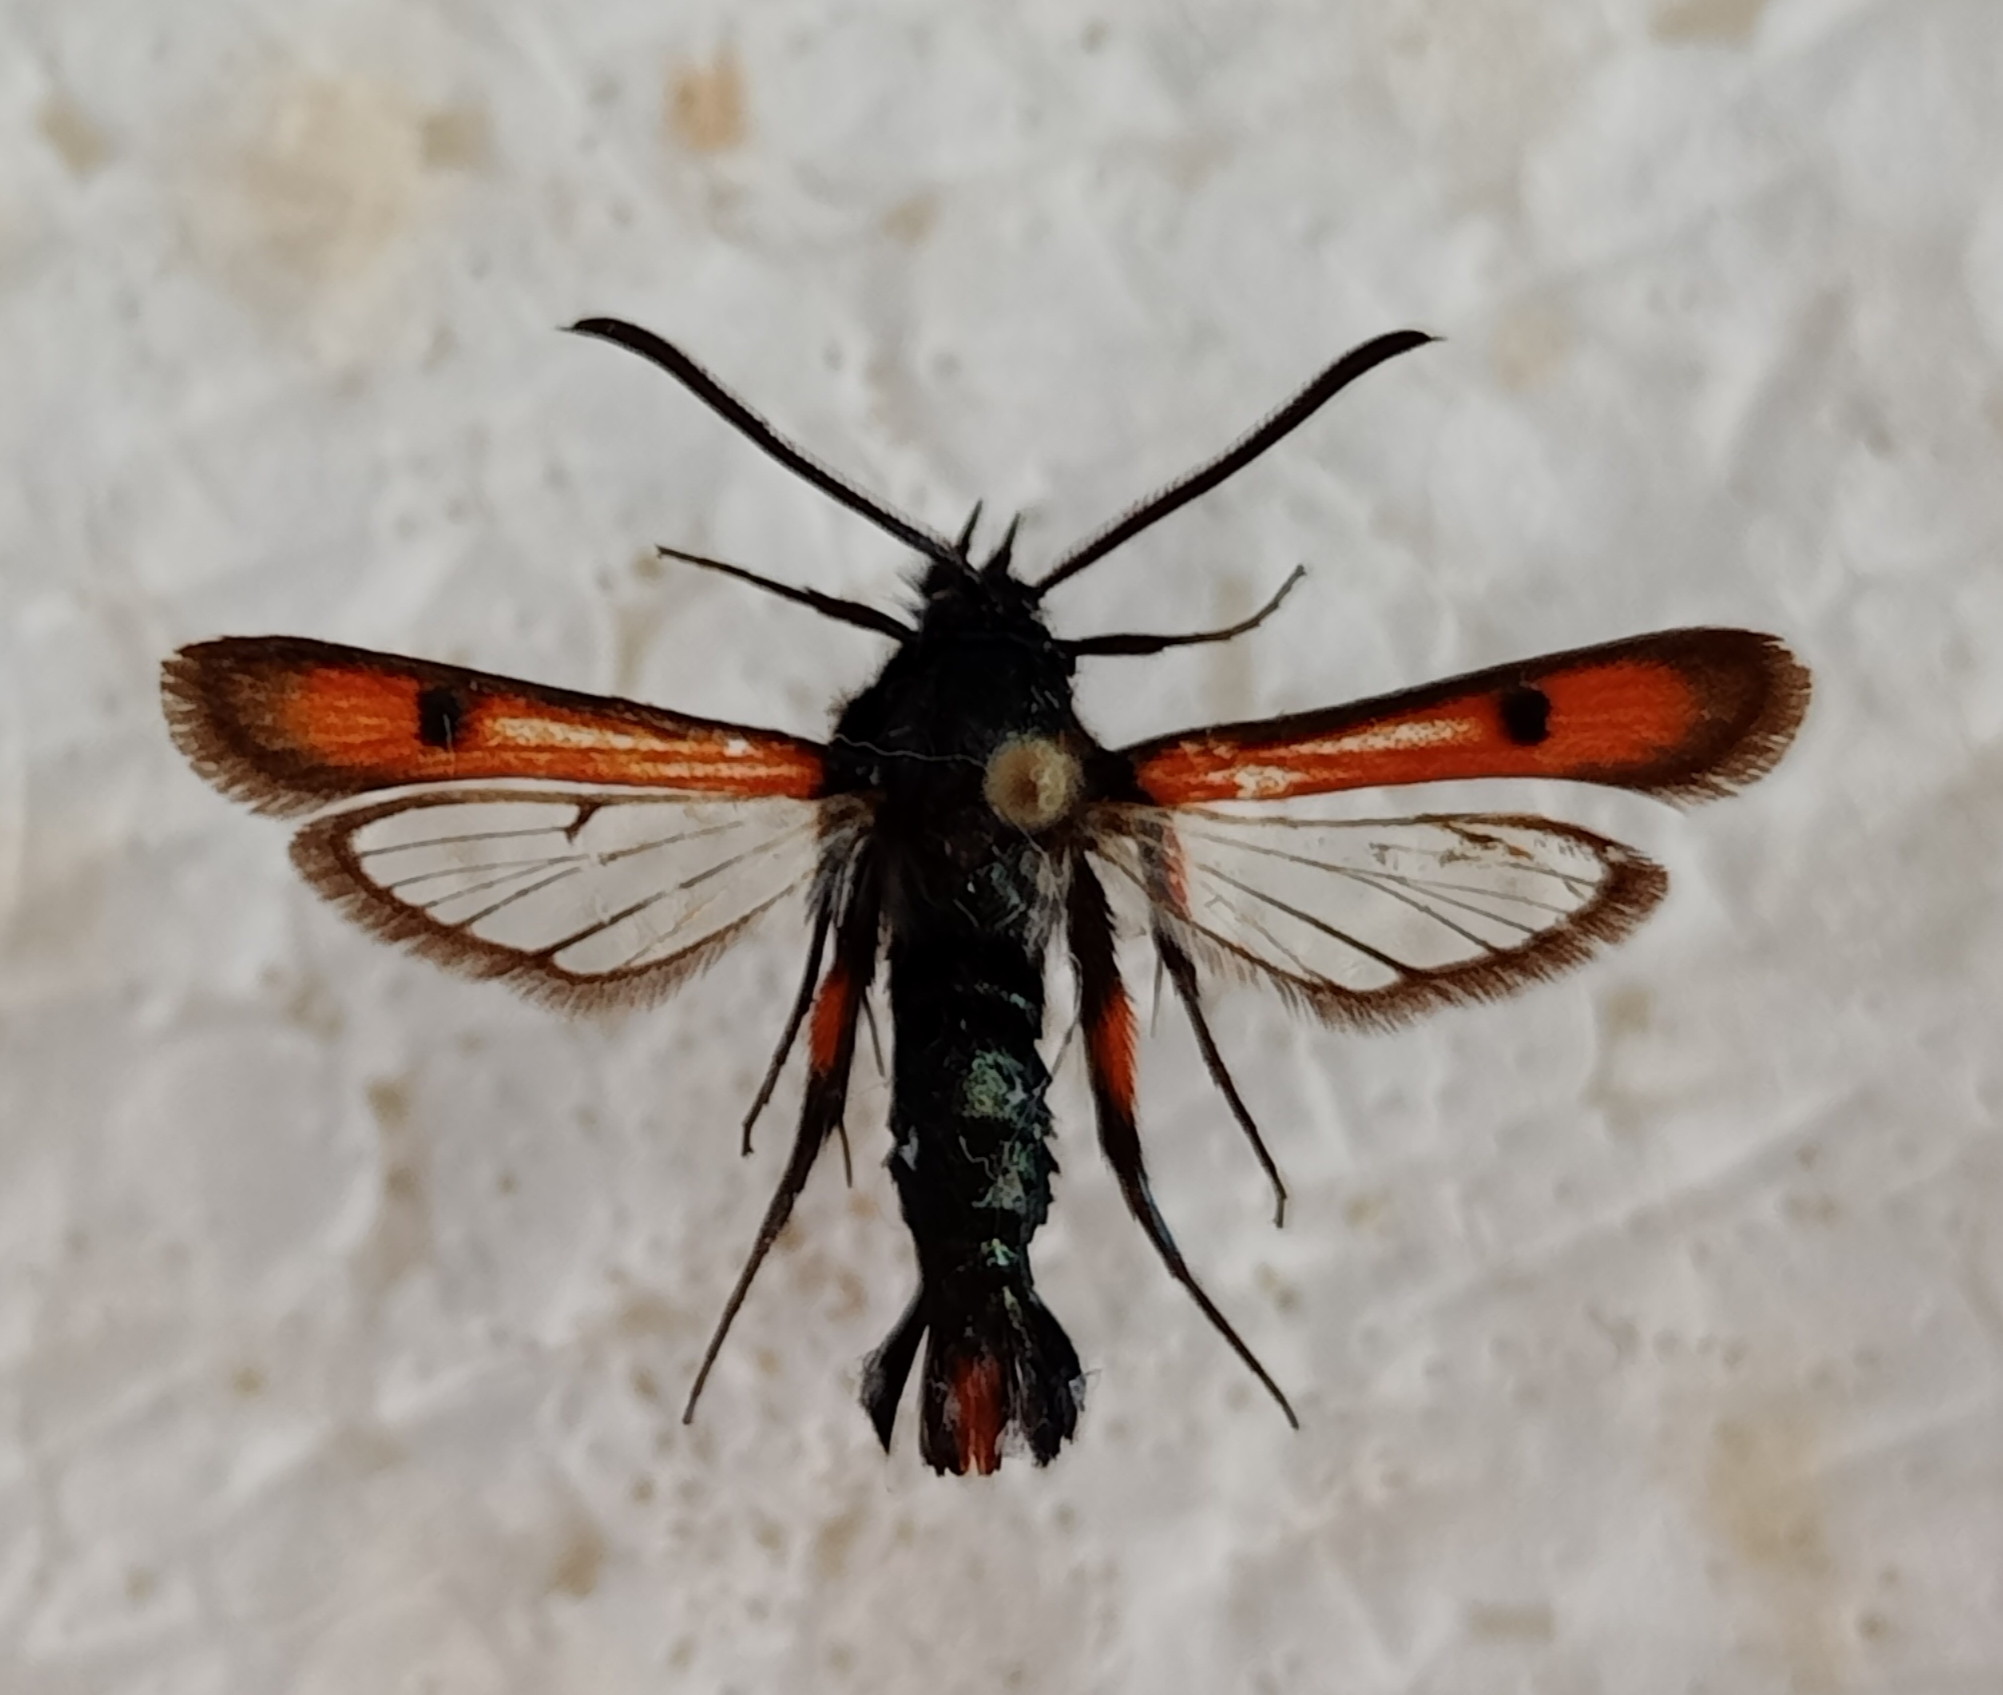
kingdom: Animalia
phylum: Arthropoda
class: Insecta
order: Lepidoptera
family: Sesiidae
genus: Chamaesphecia
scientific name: Chamaesphecia chalciformis
